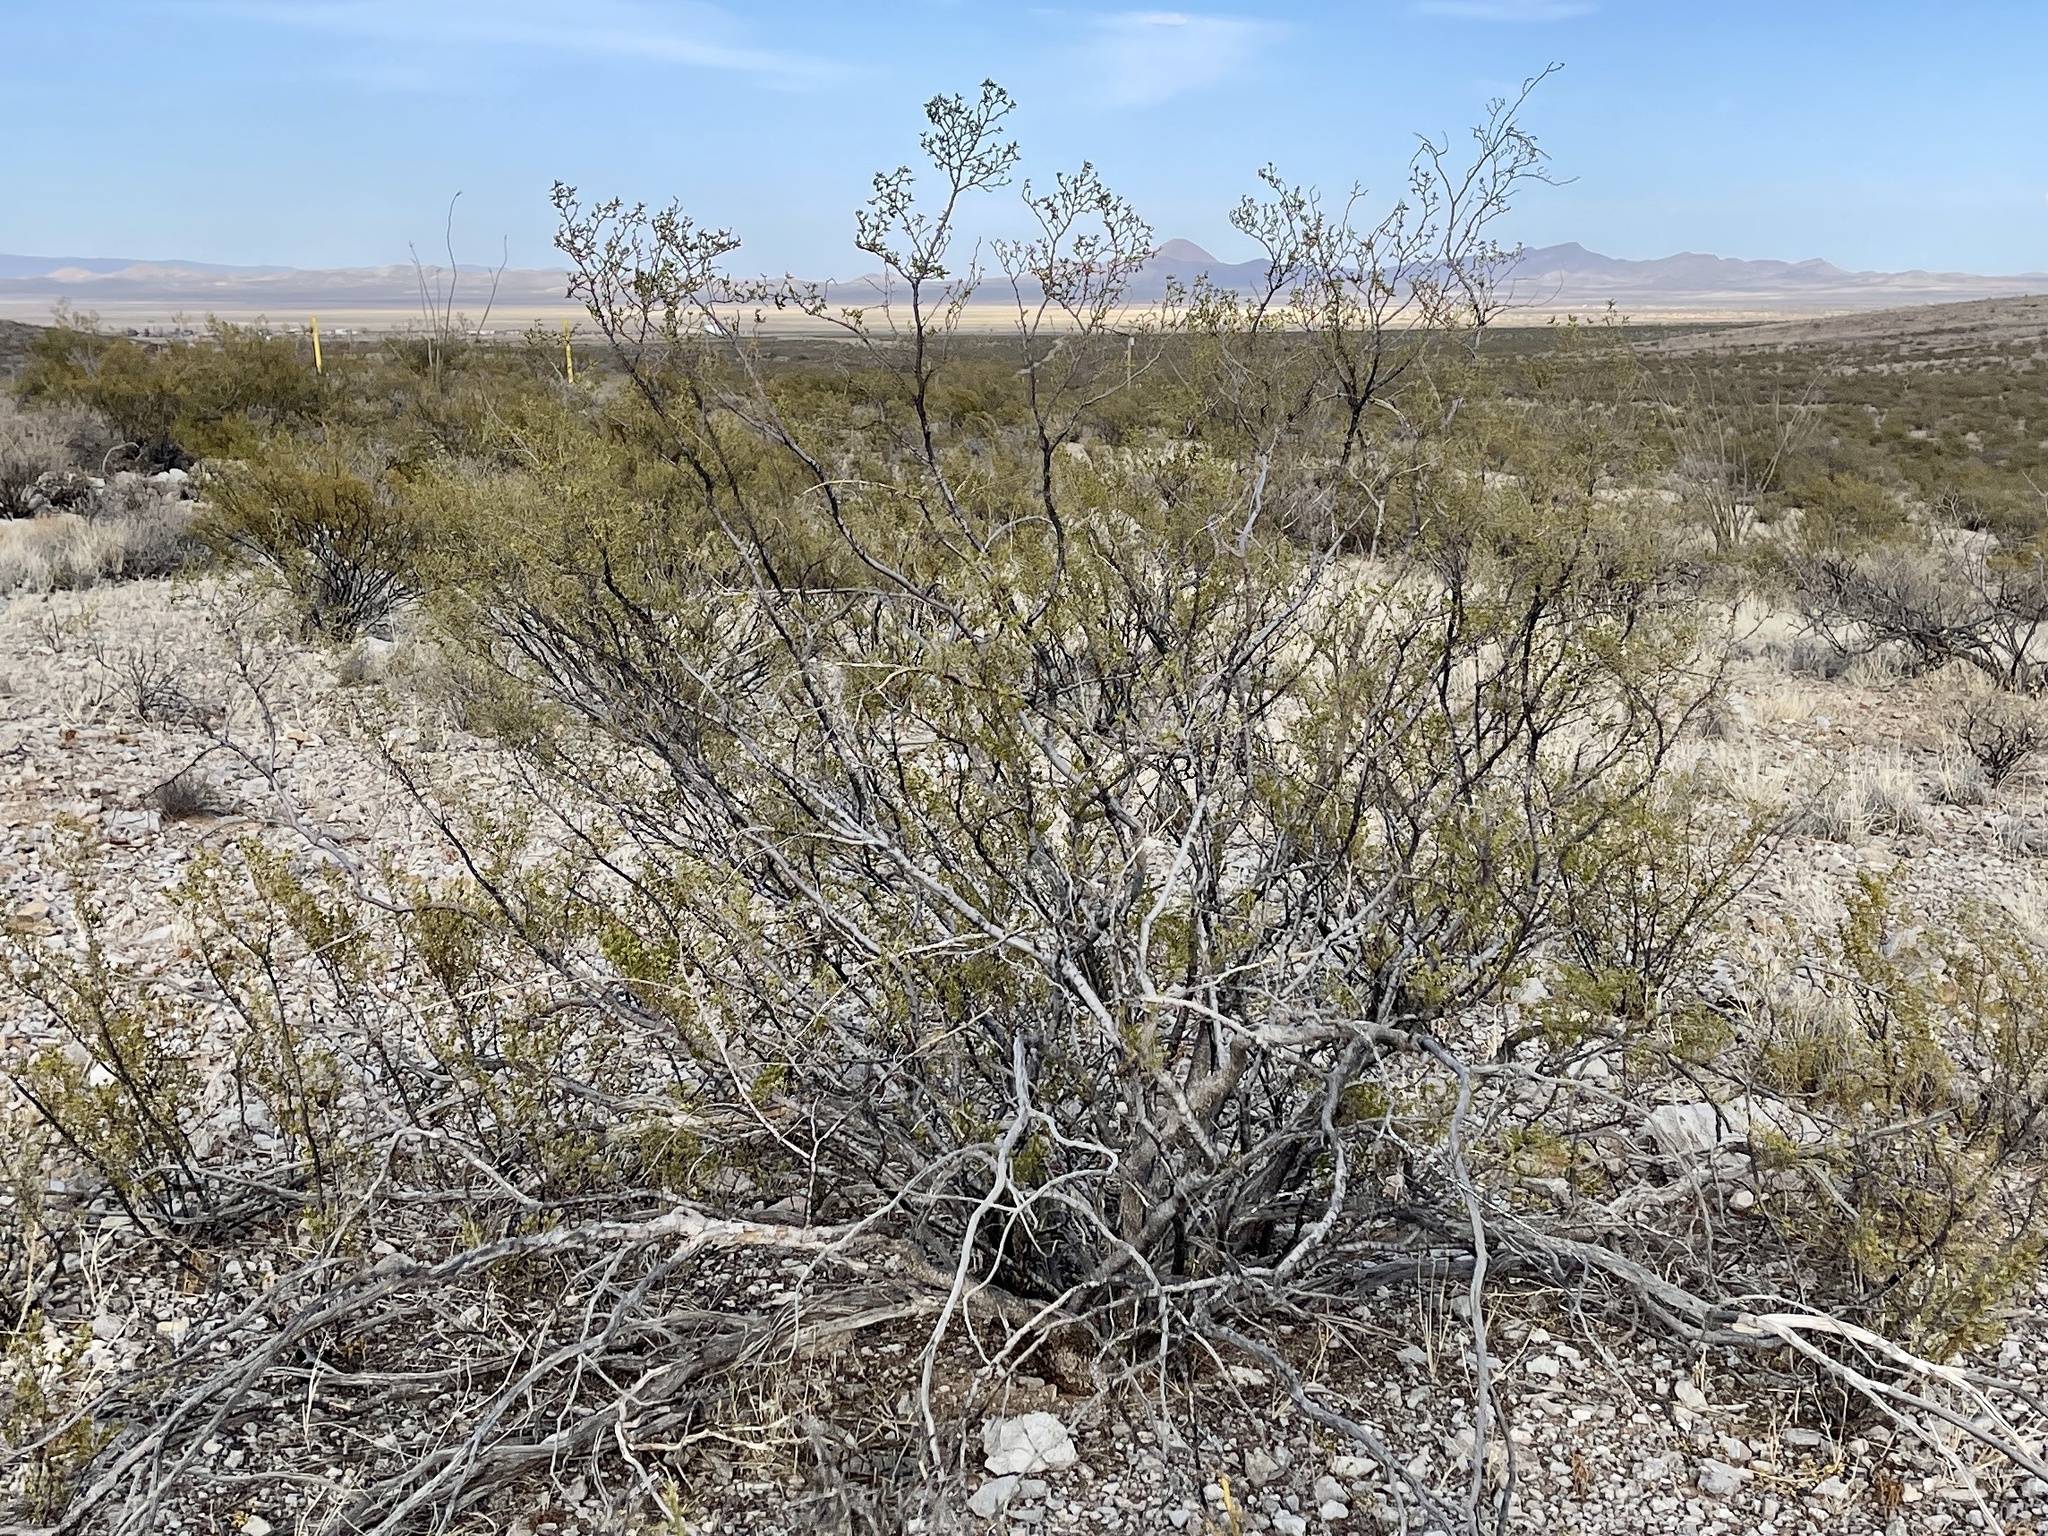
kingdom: Plantae
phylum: Tracheophyta
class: Magnoliopsida
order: Zygophyllales
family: Zygophyllaceae
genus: Larrea
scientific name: Larrea tridentata
